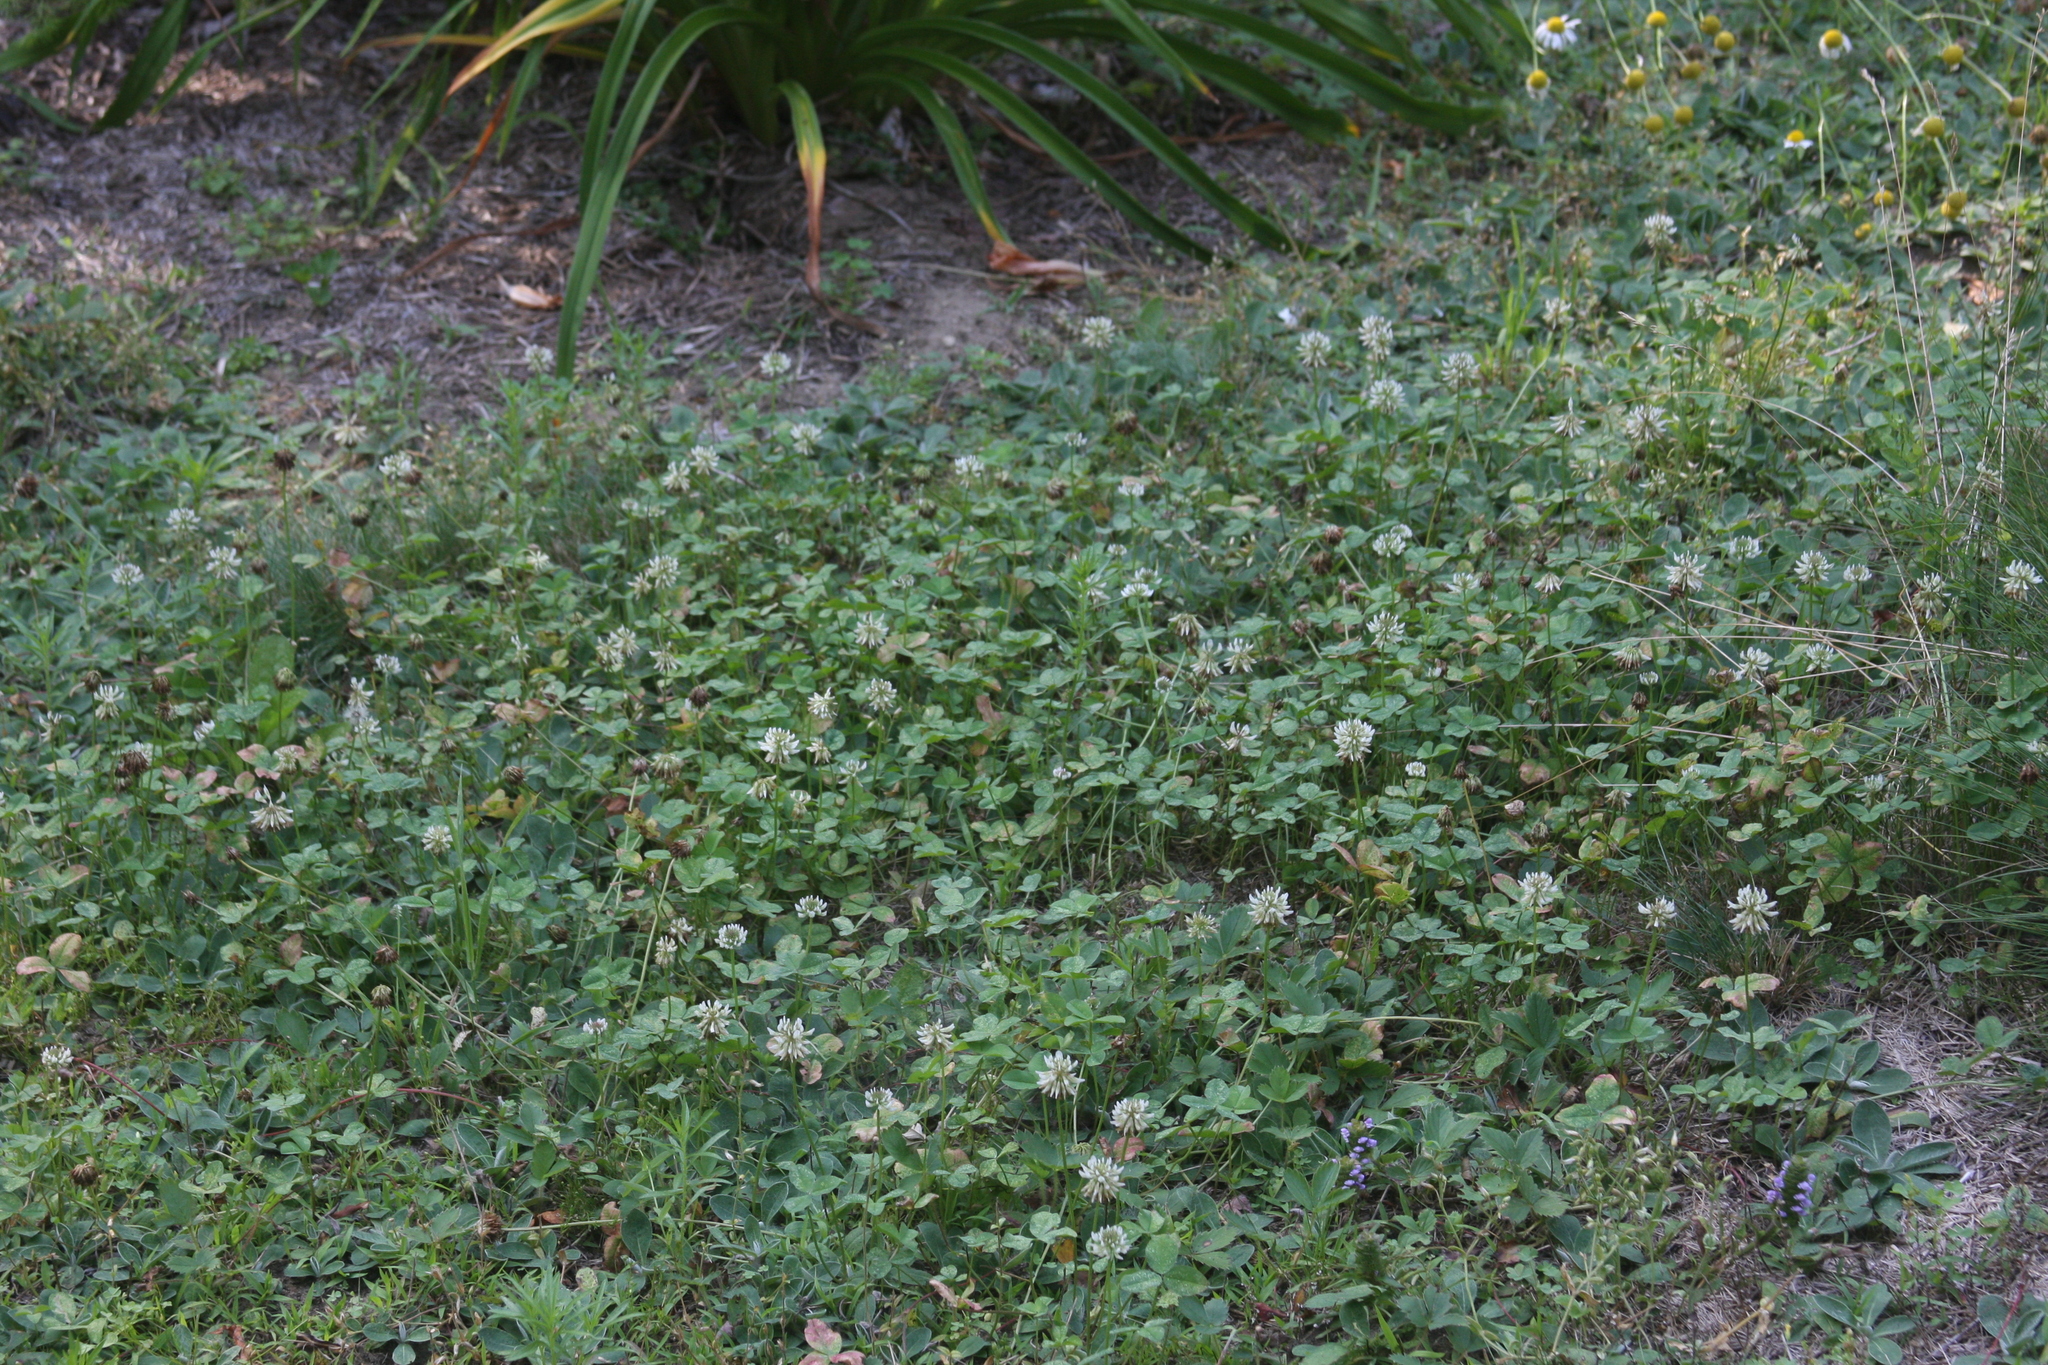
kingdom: Plantae
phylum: Tracheophyta
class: Magnoliopsida
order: Fabales
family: Fabaceae
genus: Trifolium
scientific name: Trifolium repens
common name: White clover
